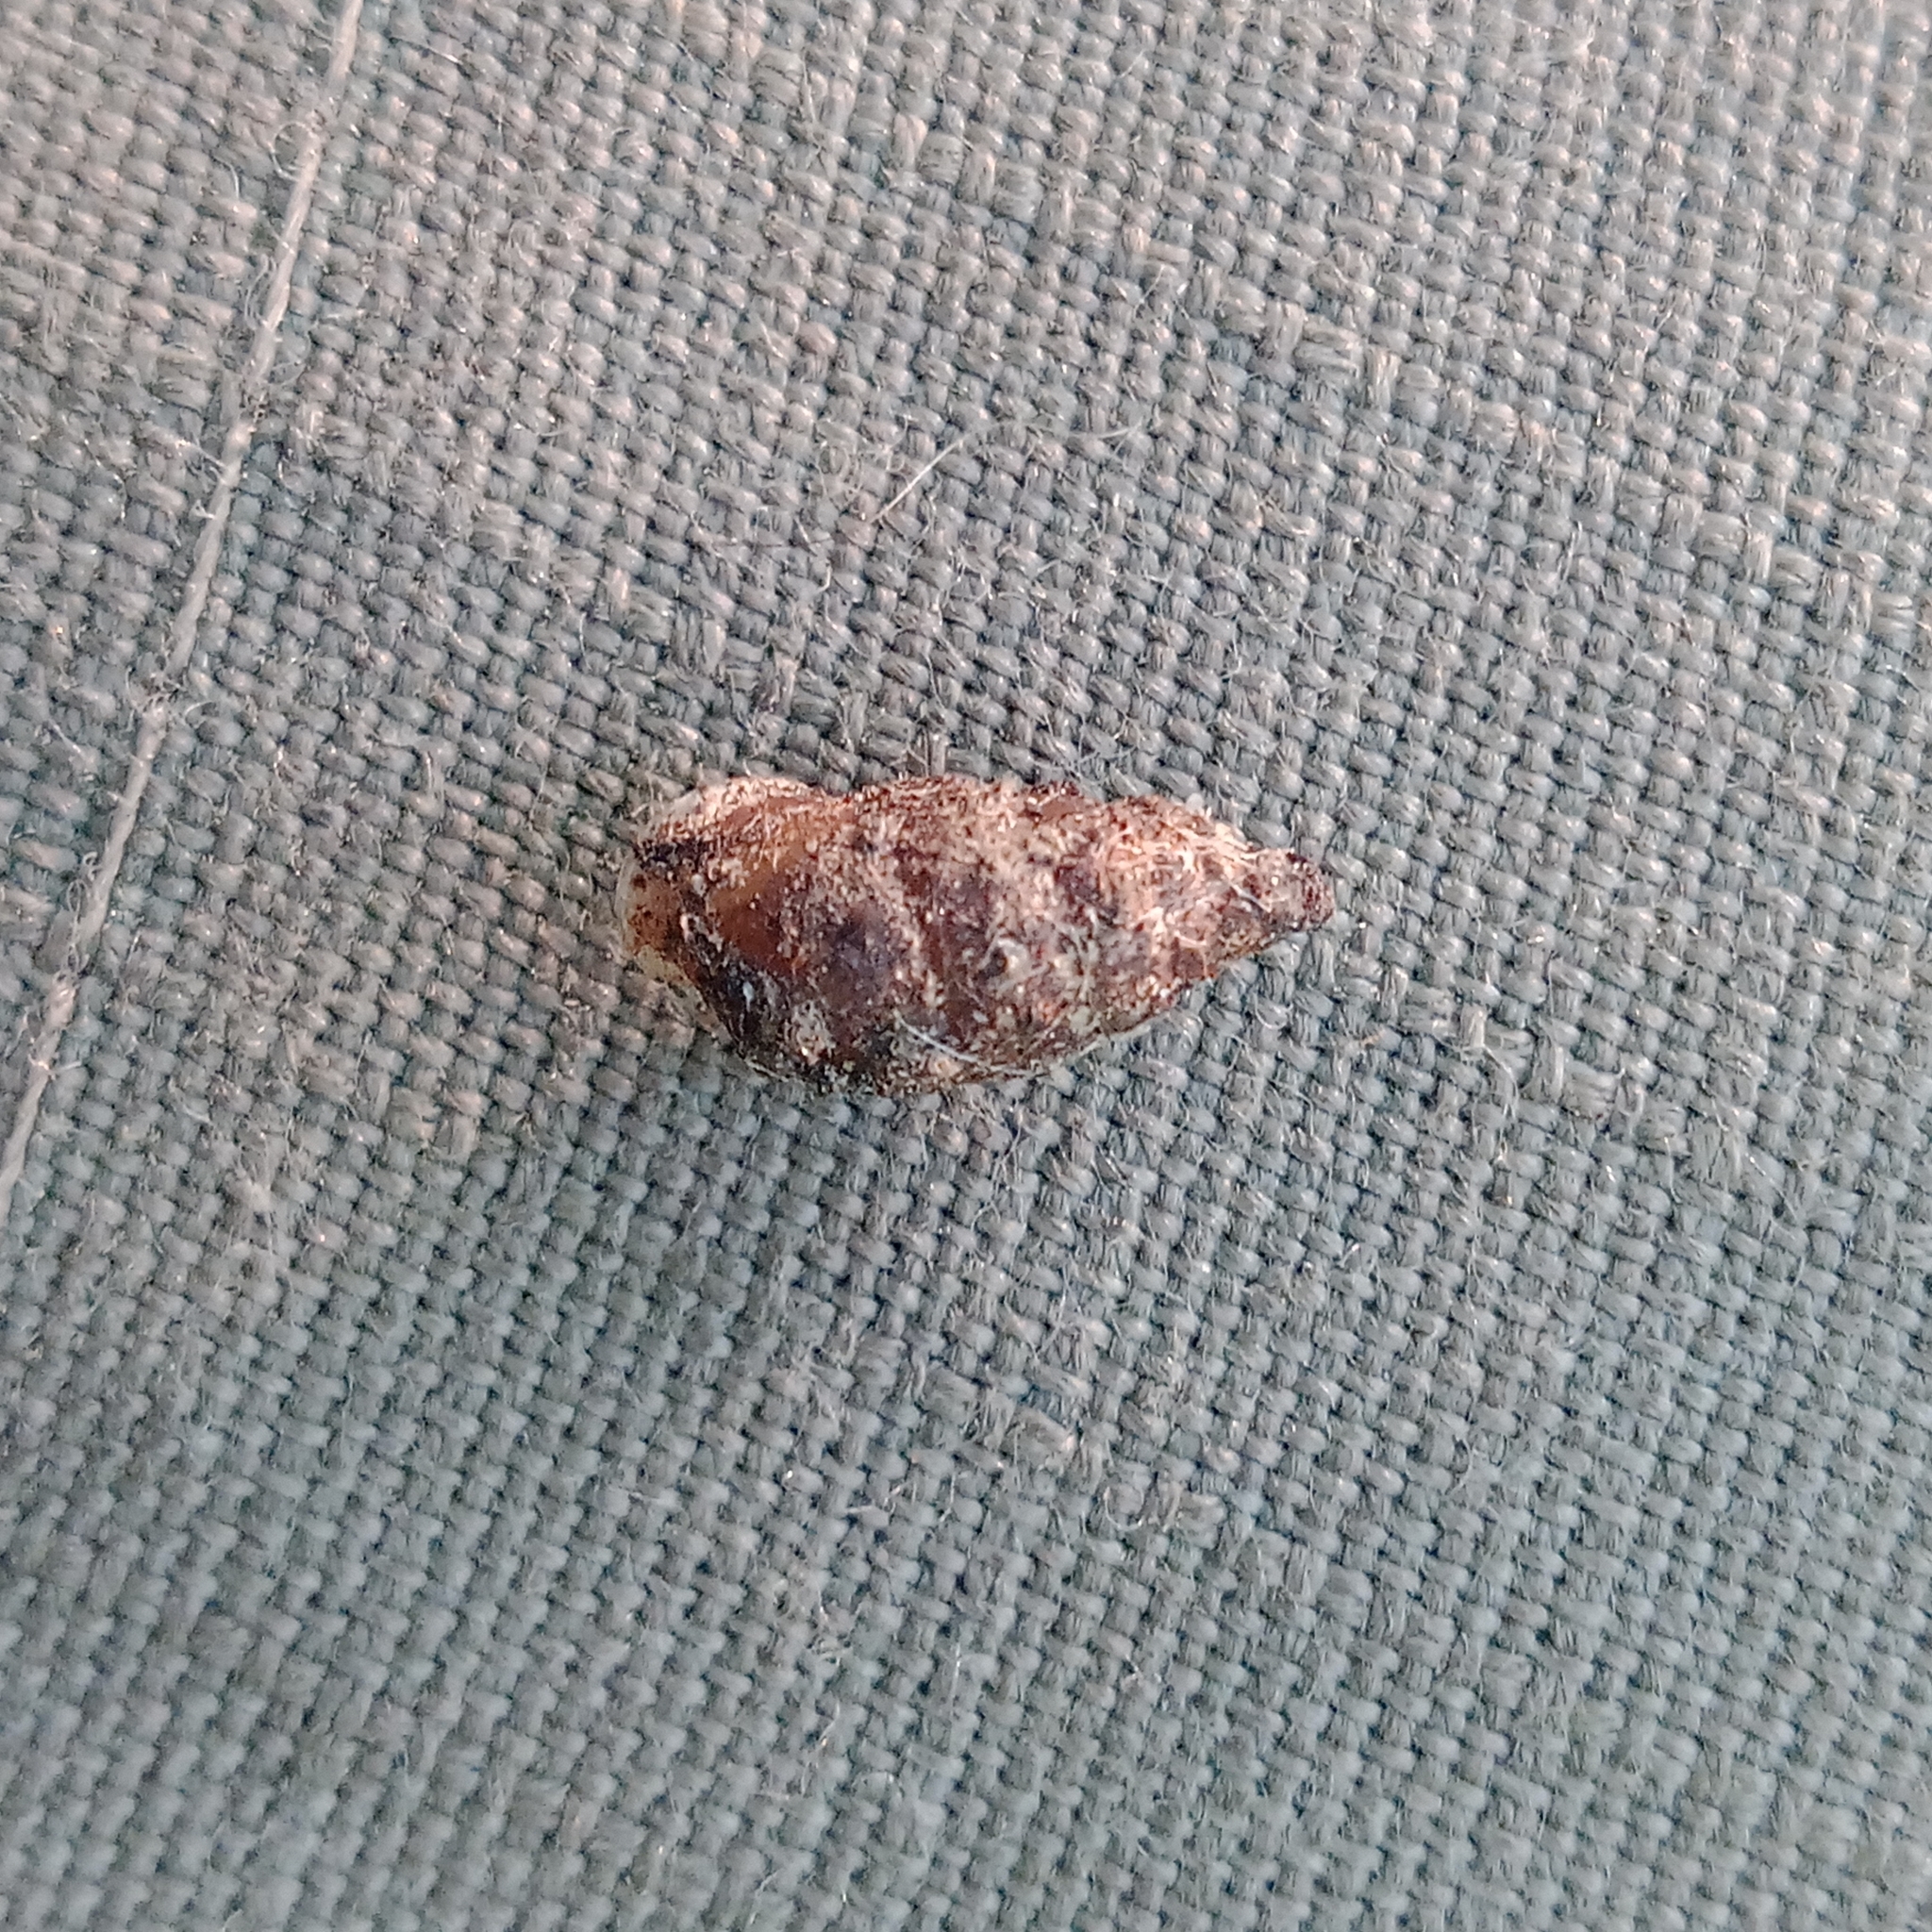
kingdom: Animalia
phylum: Mollusca
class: Gastropoda
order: Stylommatophora
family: Enidae
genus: Merdigera
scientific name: Merdigera obscura
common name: Lesser bulin
